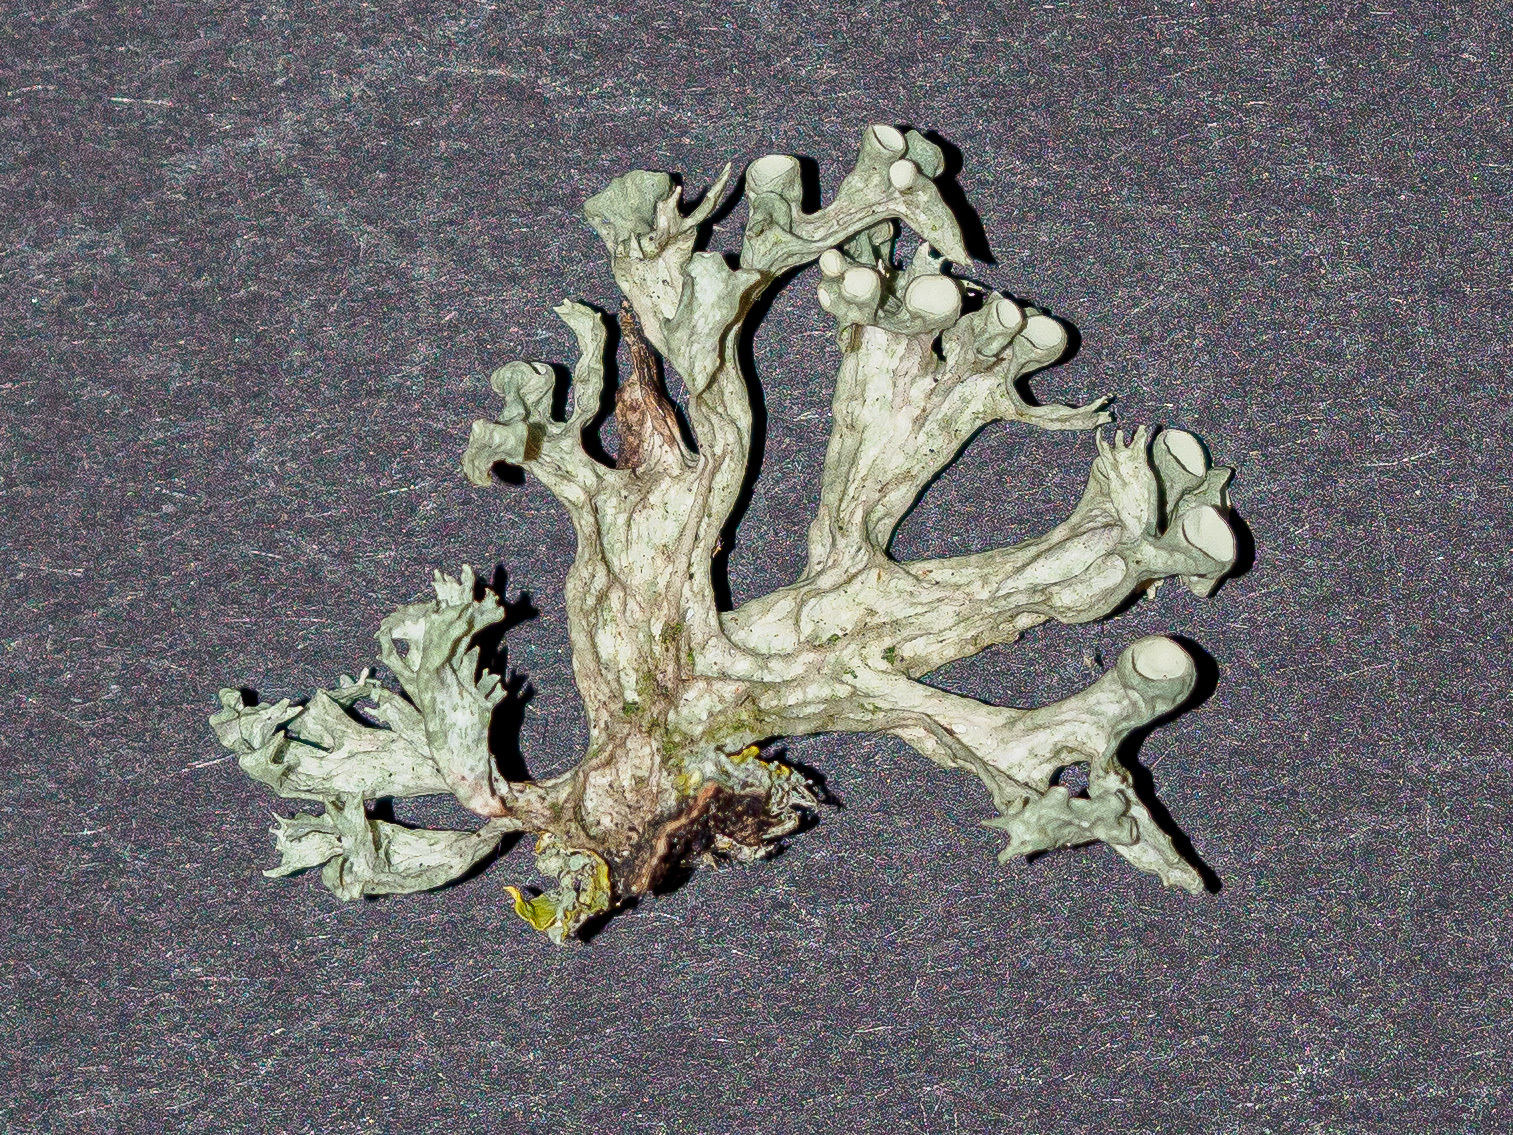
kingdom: Fungi
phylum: Ascomycota
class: Lecanoromycetes
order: Lecanorales
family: Ramalinaceae
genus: Ramalina
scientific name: Ramalina fastigiata
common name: Dotted ribbon lichen
